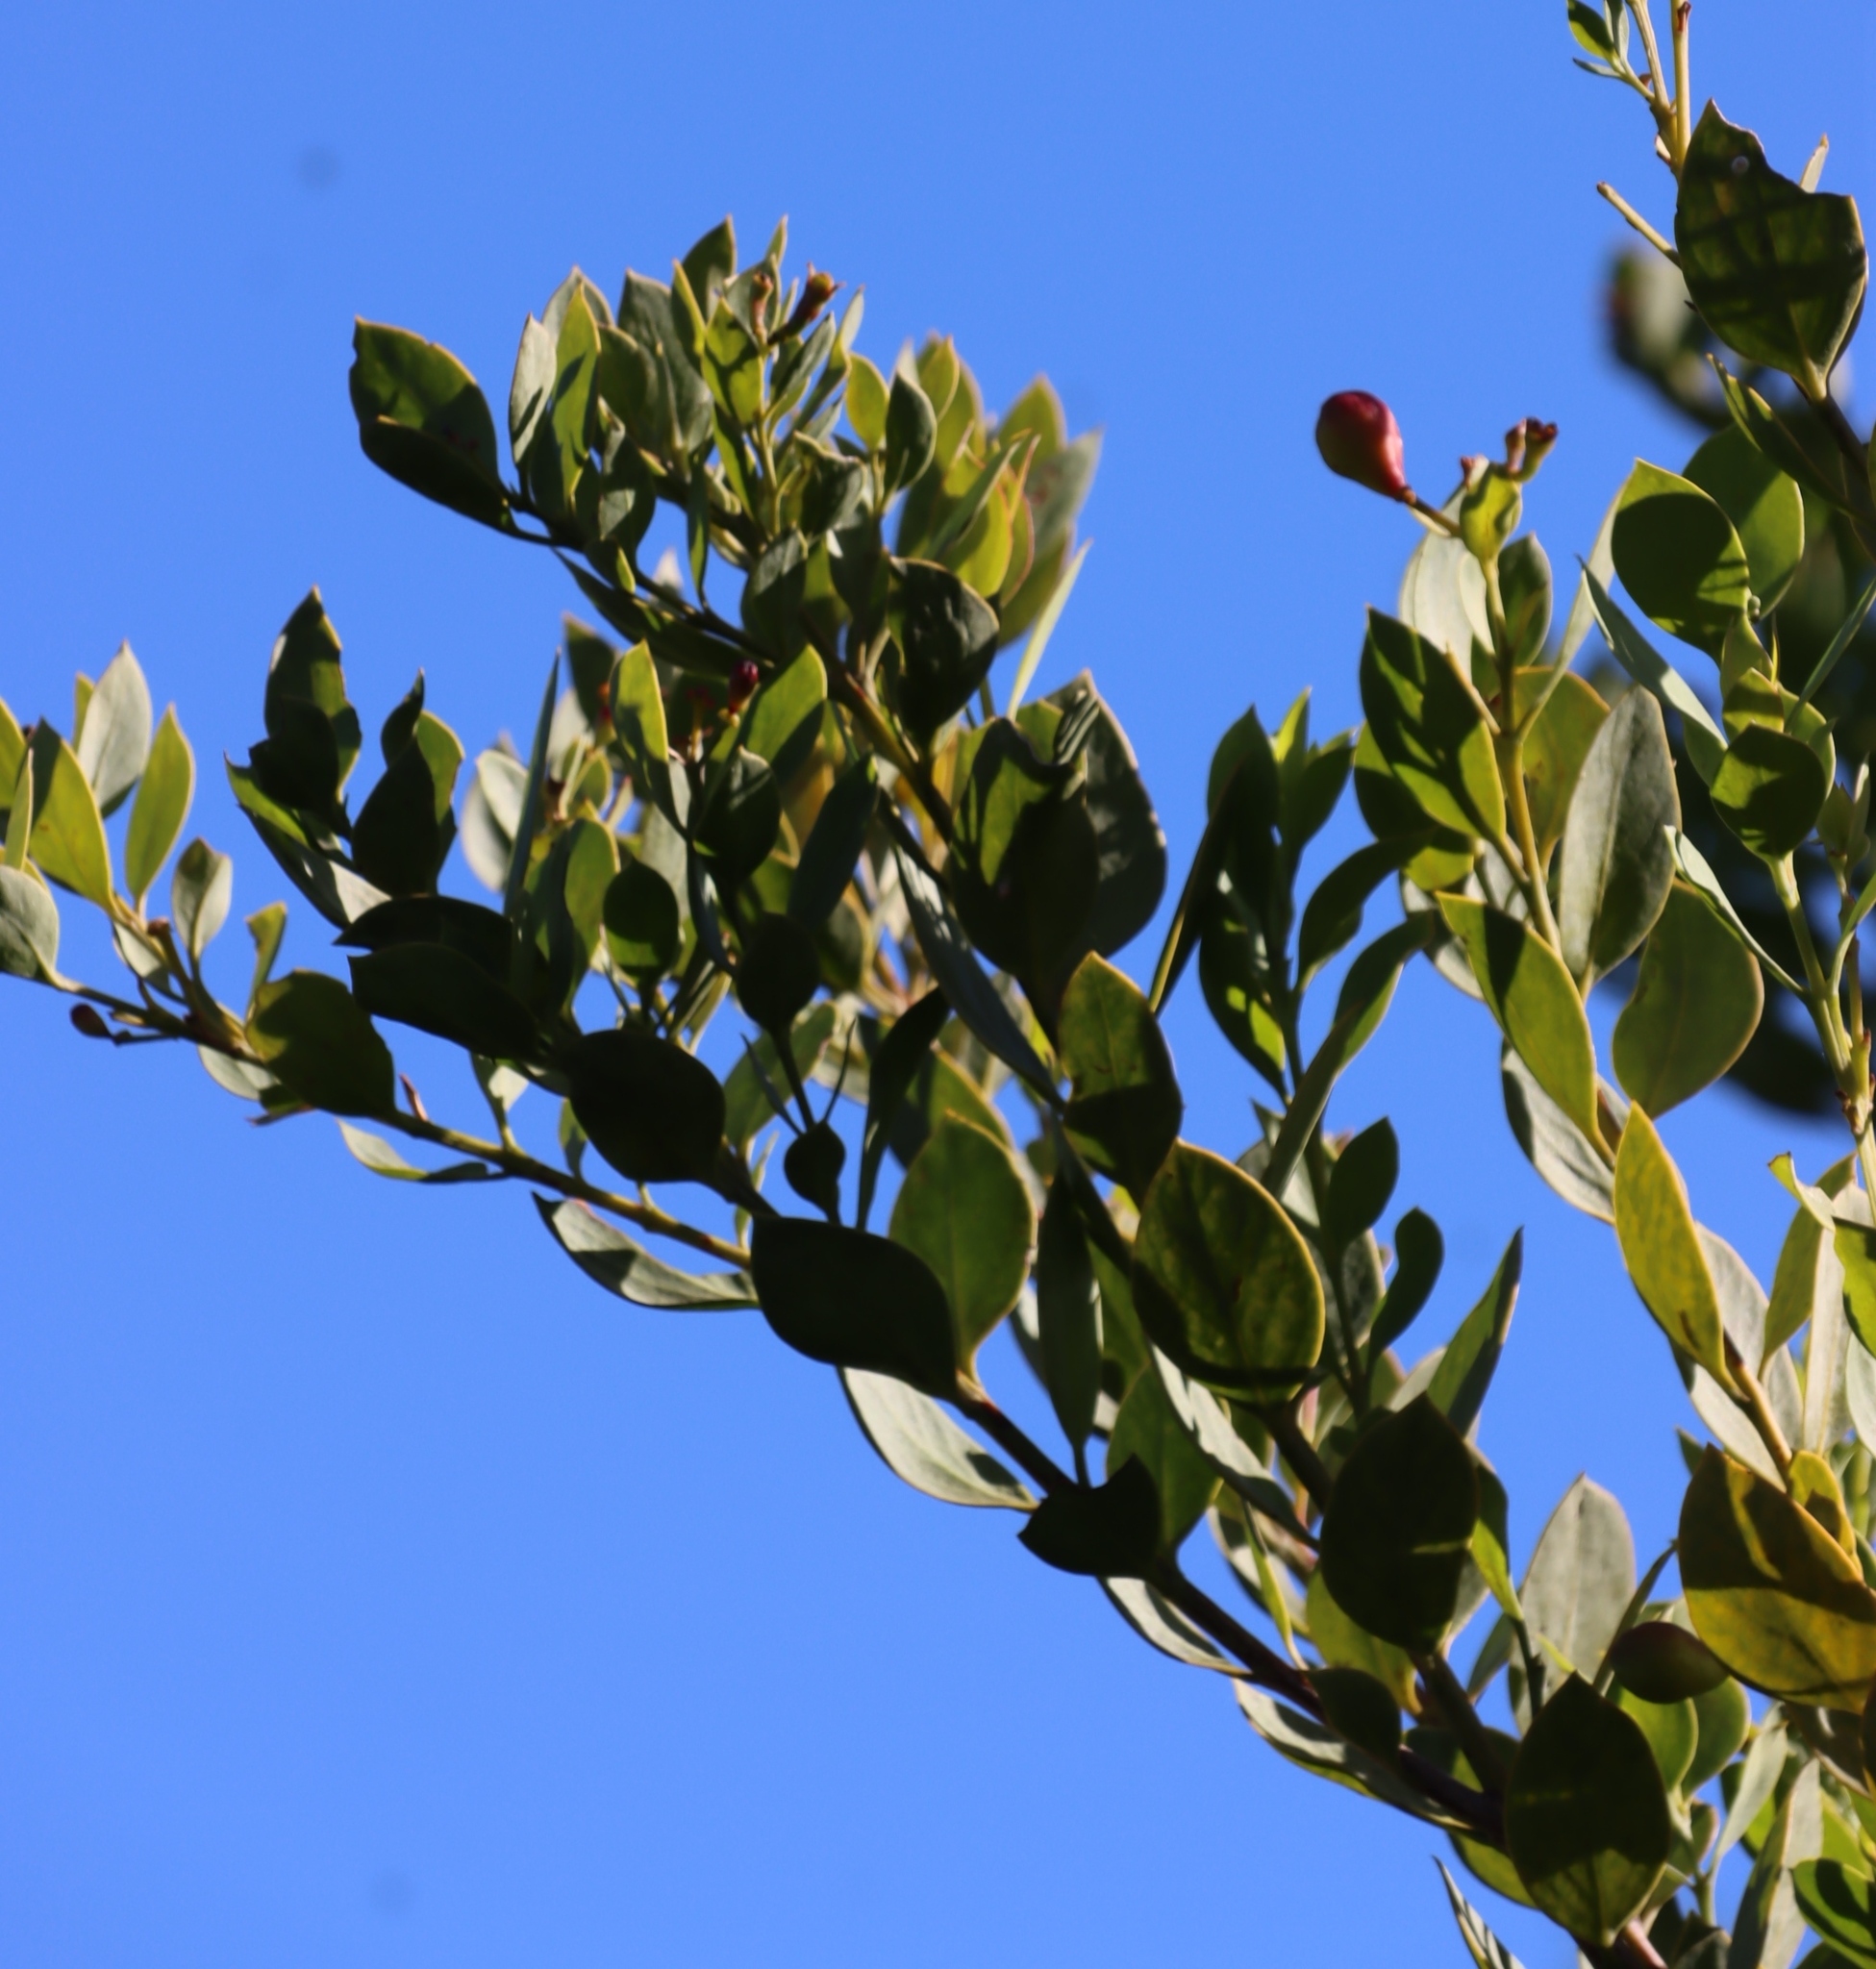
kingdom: Plantae
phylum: Tracheophyta
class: Magnoliopsida
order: Santalales
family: Santalaceae
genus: Osyris
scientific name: Osyris compressa
